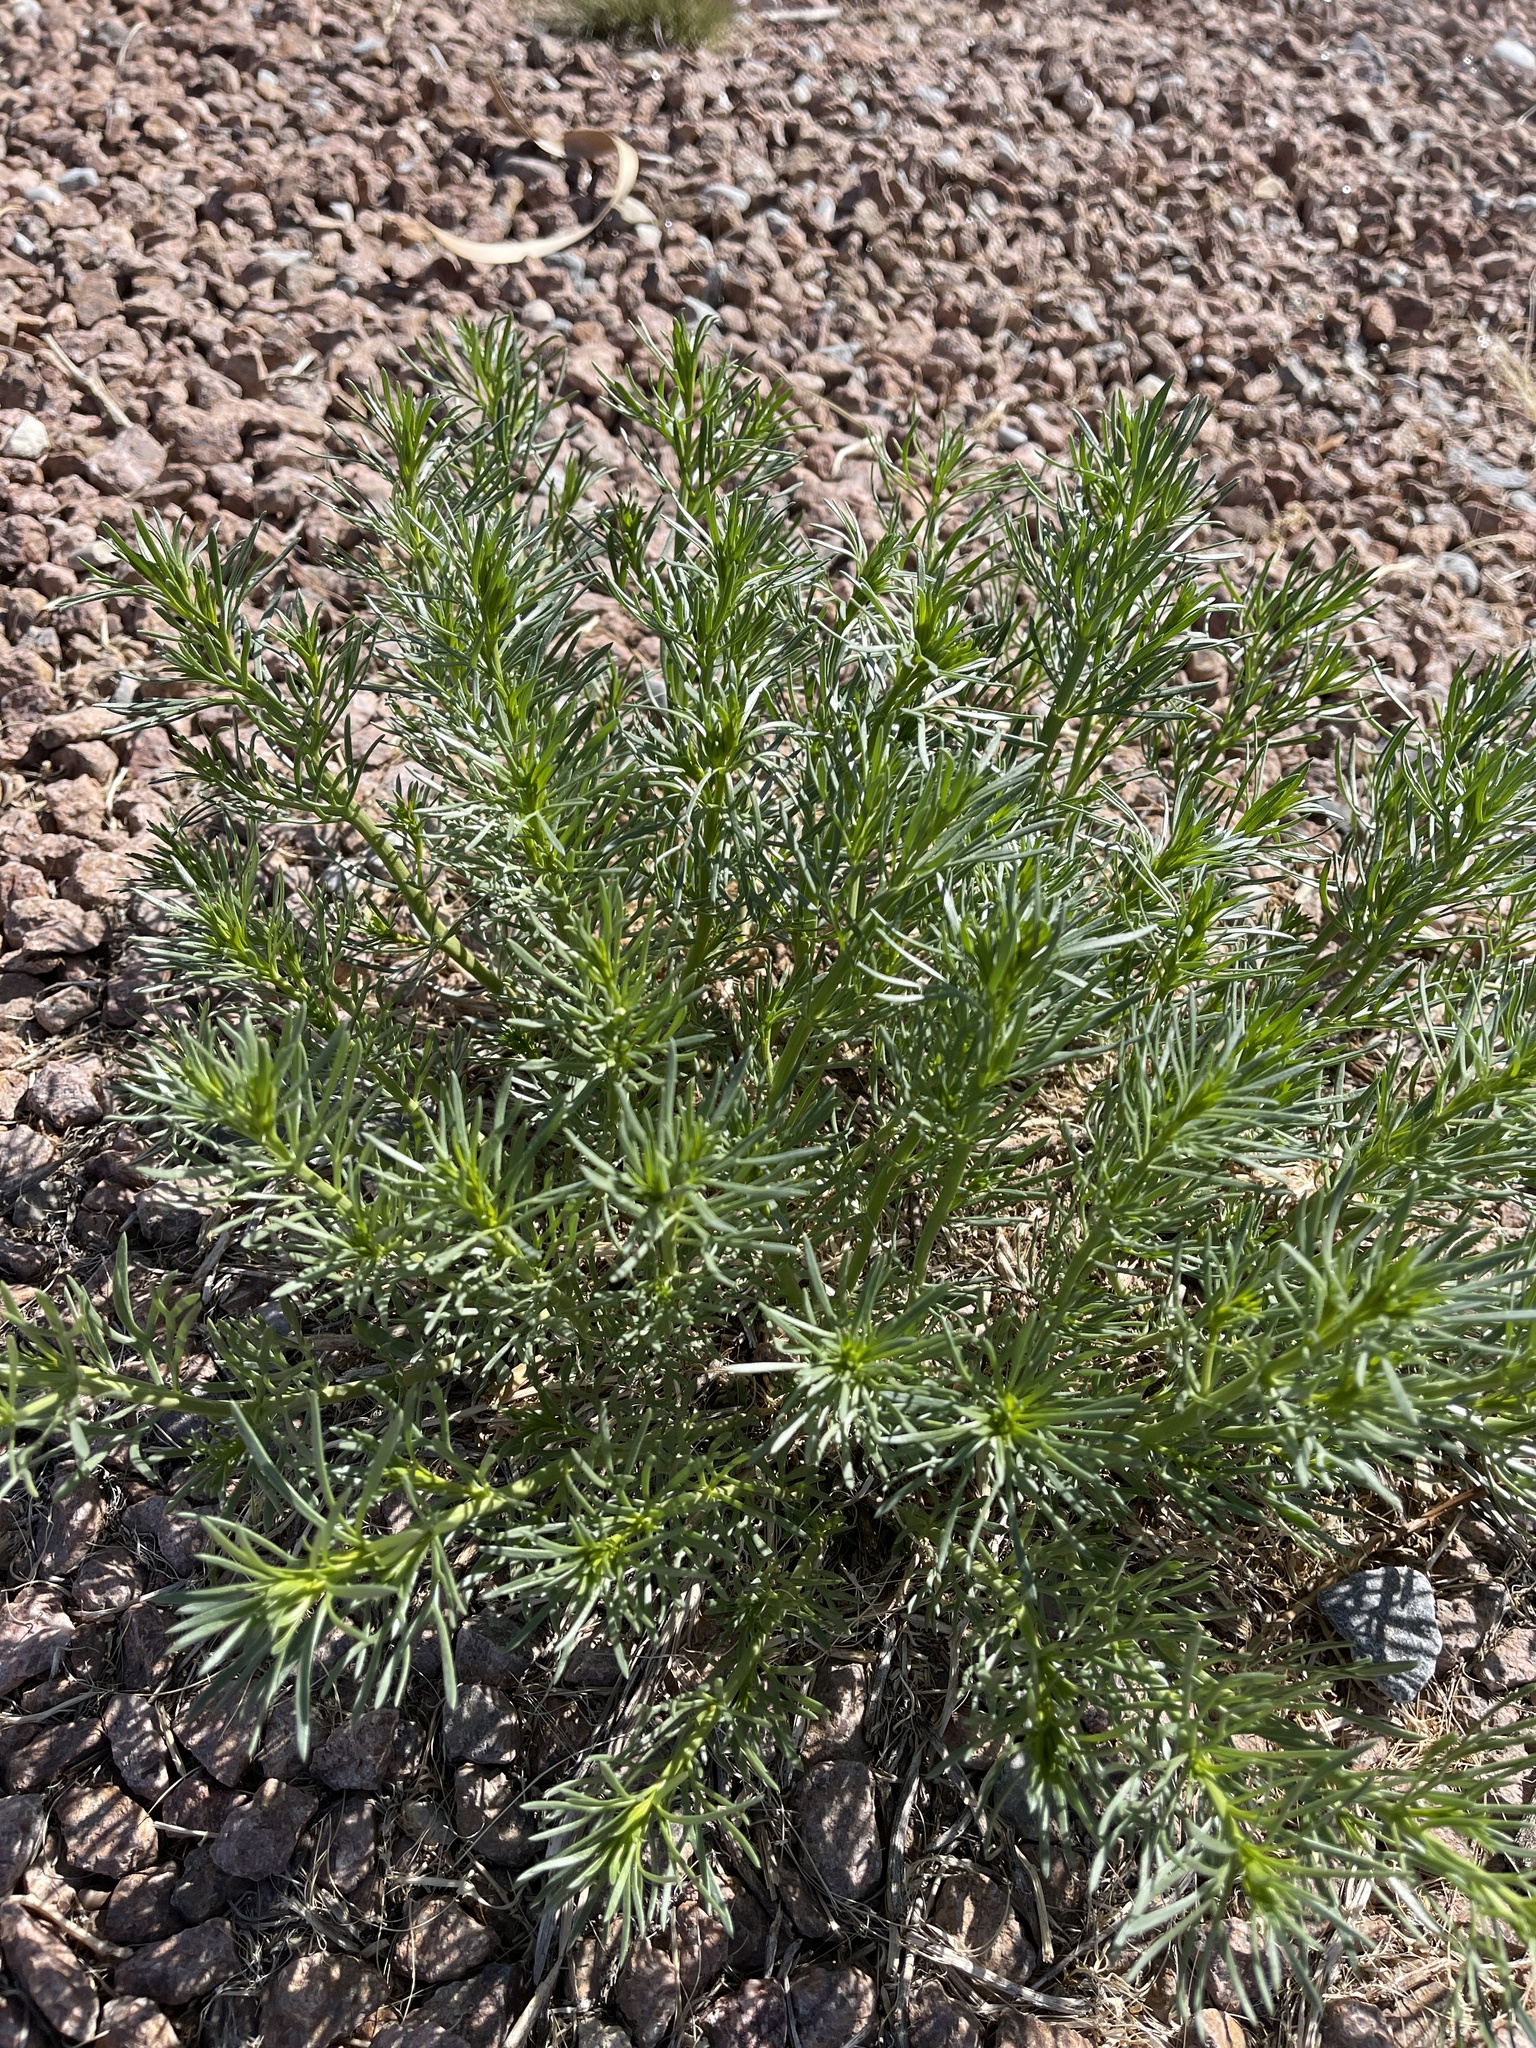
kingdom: Plantae
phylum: Tracheophyta
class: Magnoliopsida
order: Sapindales
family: Tetradiclidaceae
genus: Peganum
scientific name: Peganum harmala
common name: Harmal peganum
